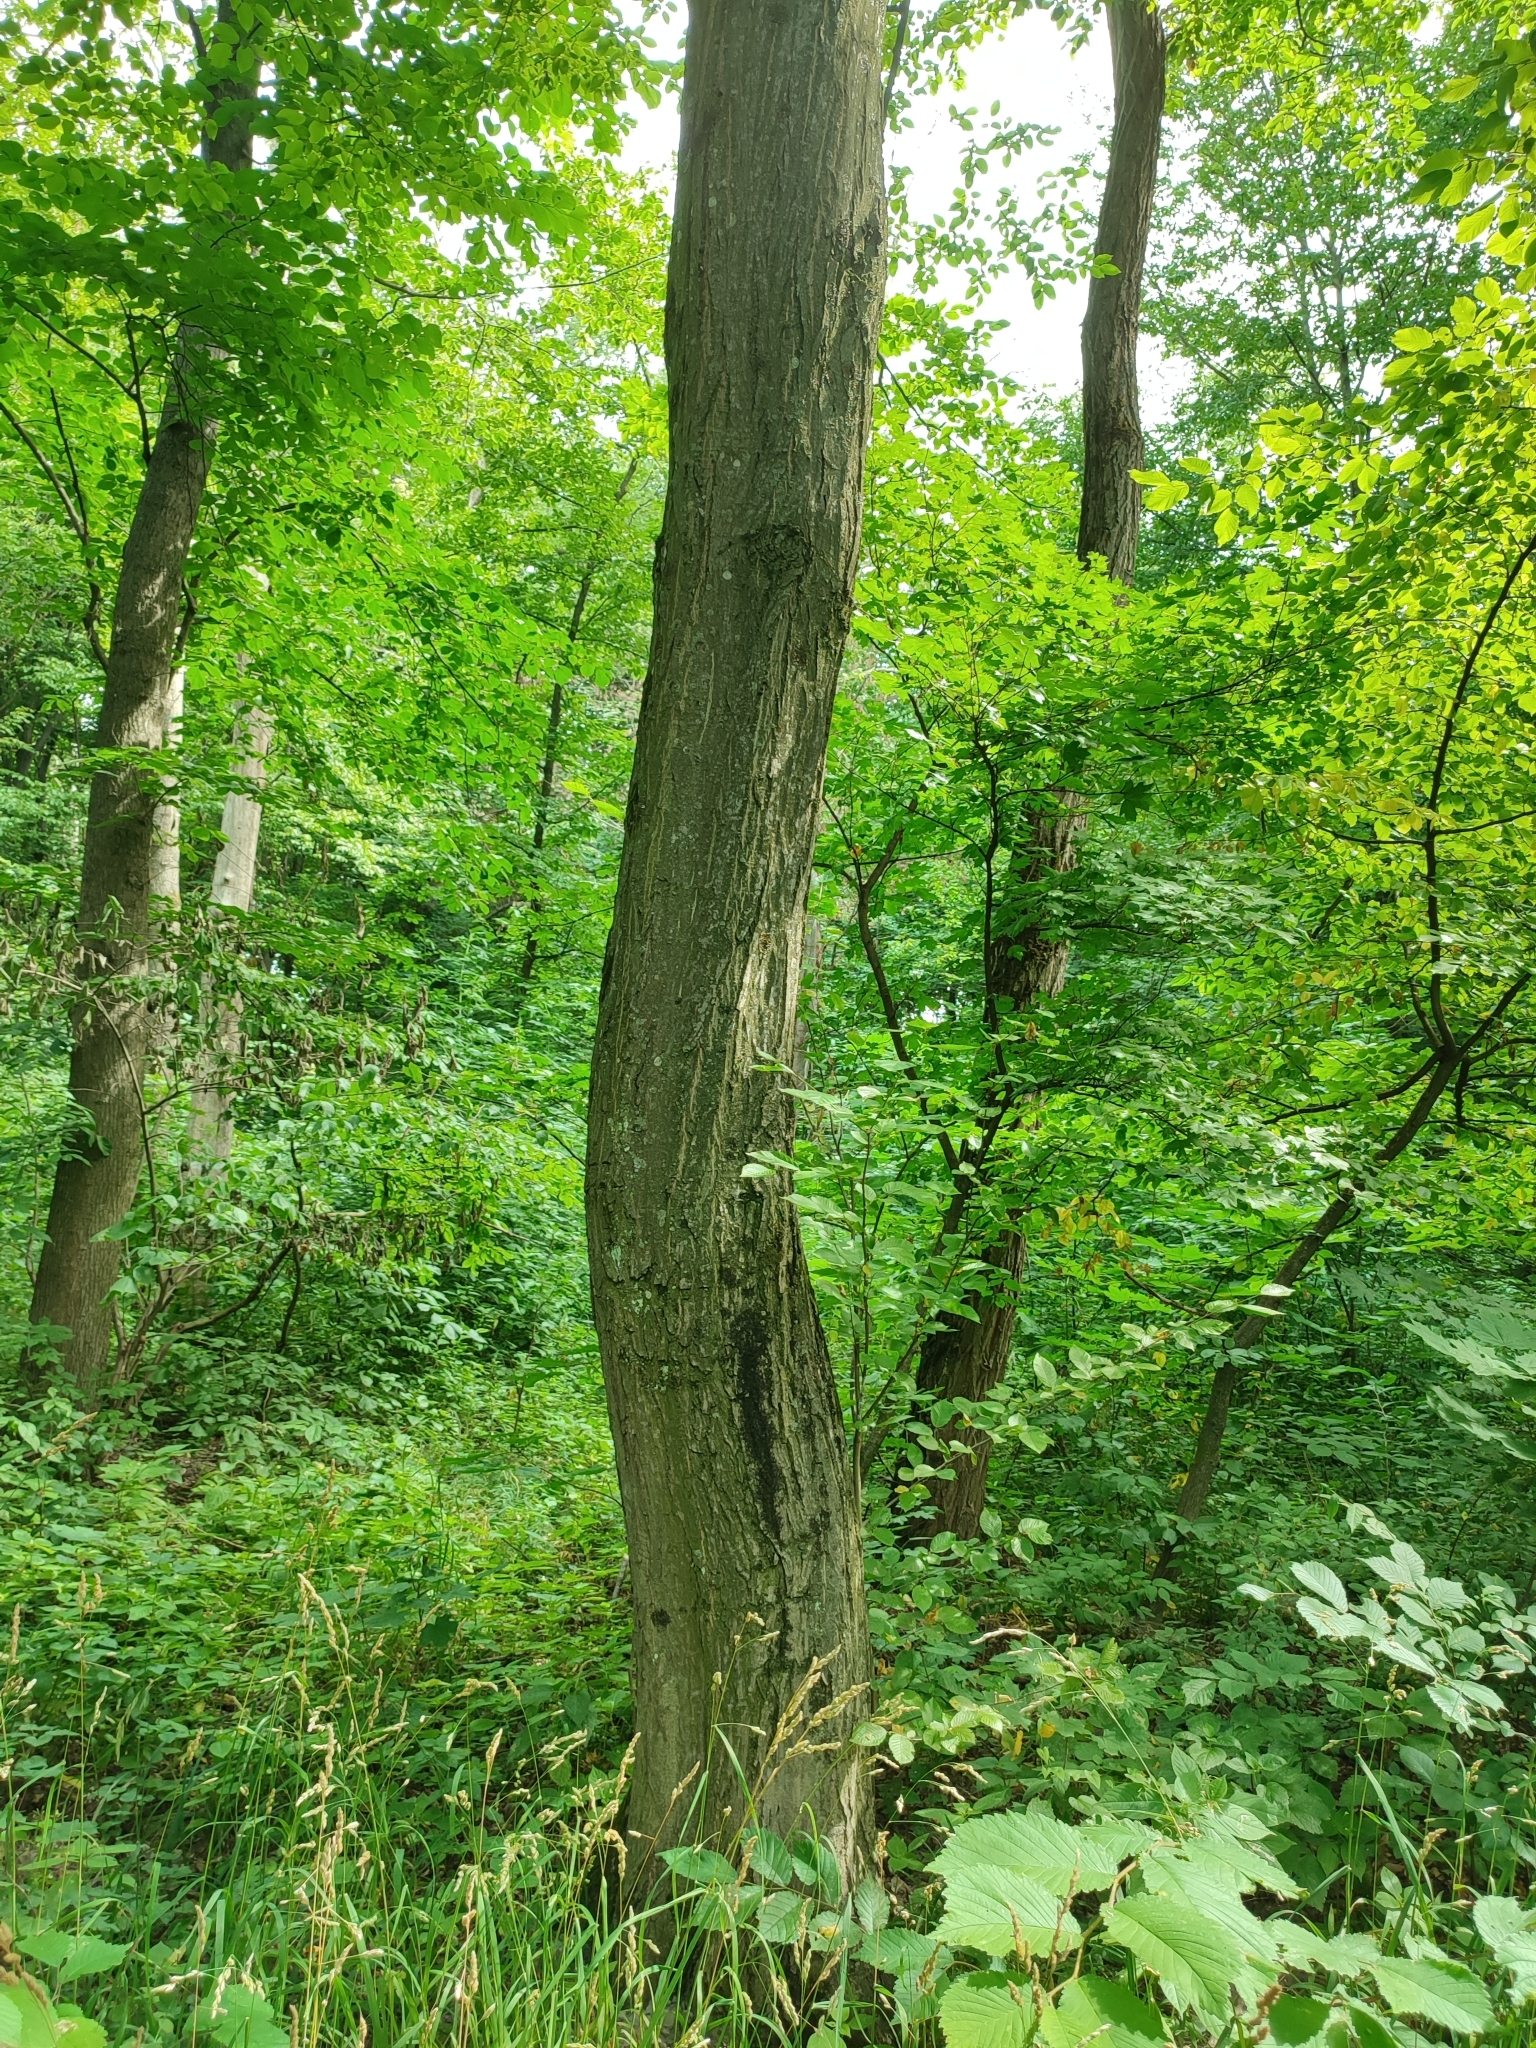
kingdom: Plantae
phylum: Tracheophyta
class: Magnoliopsida
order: Fagales
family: Betulaceae
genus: Carpinus
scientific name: Carpinus betulus
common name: Hornbeam
